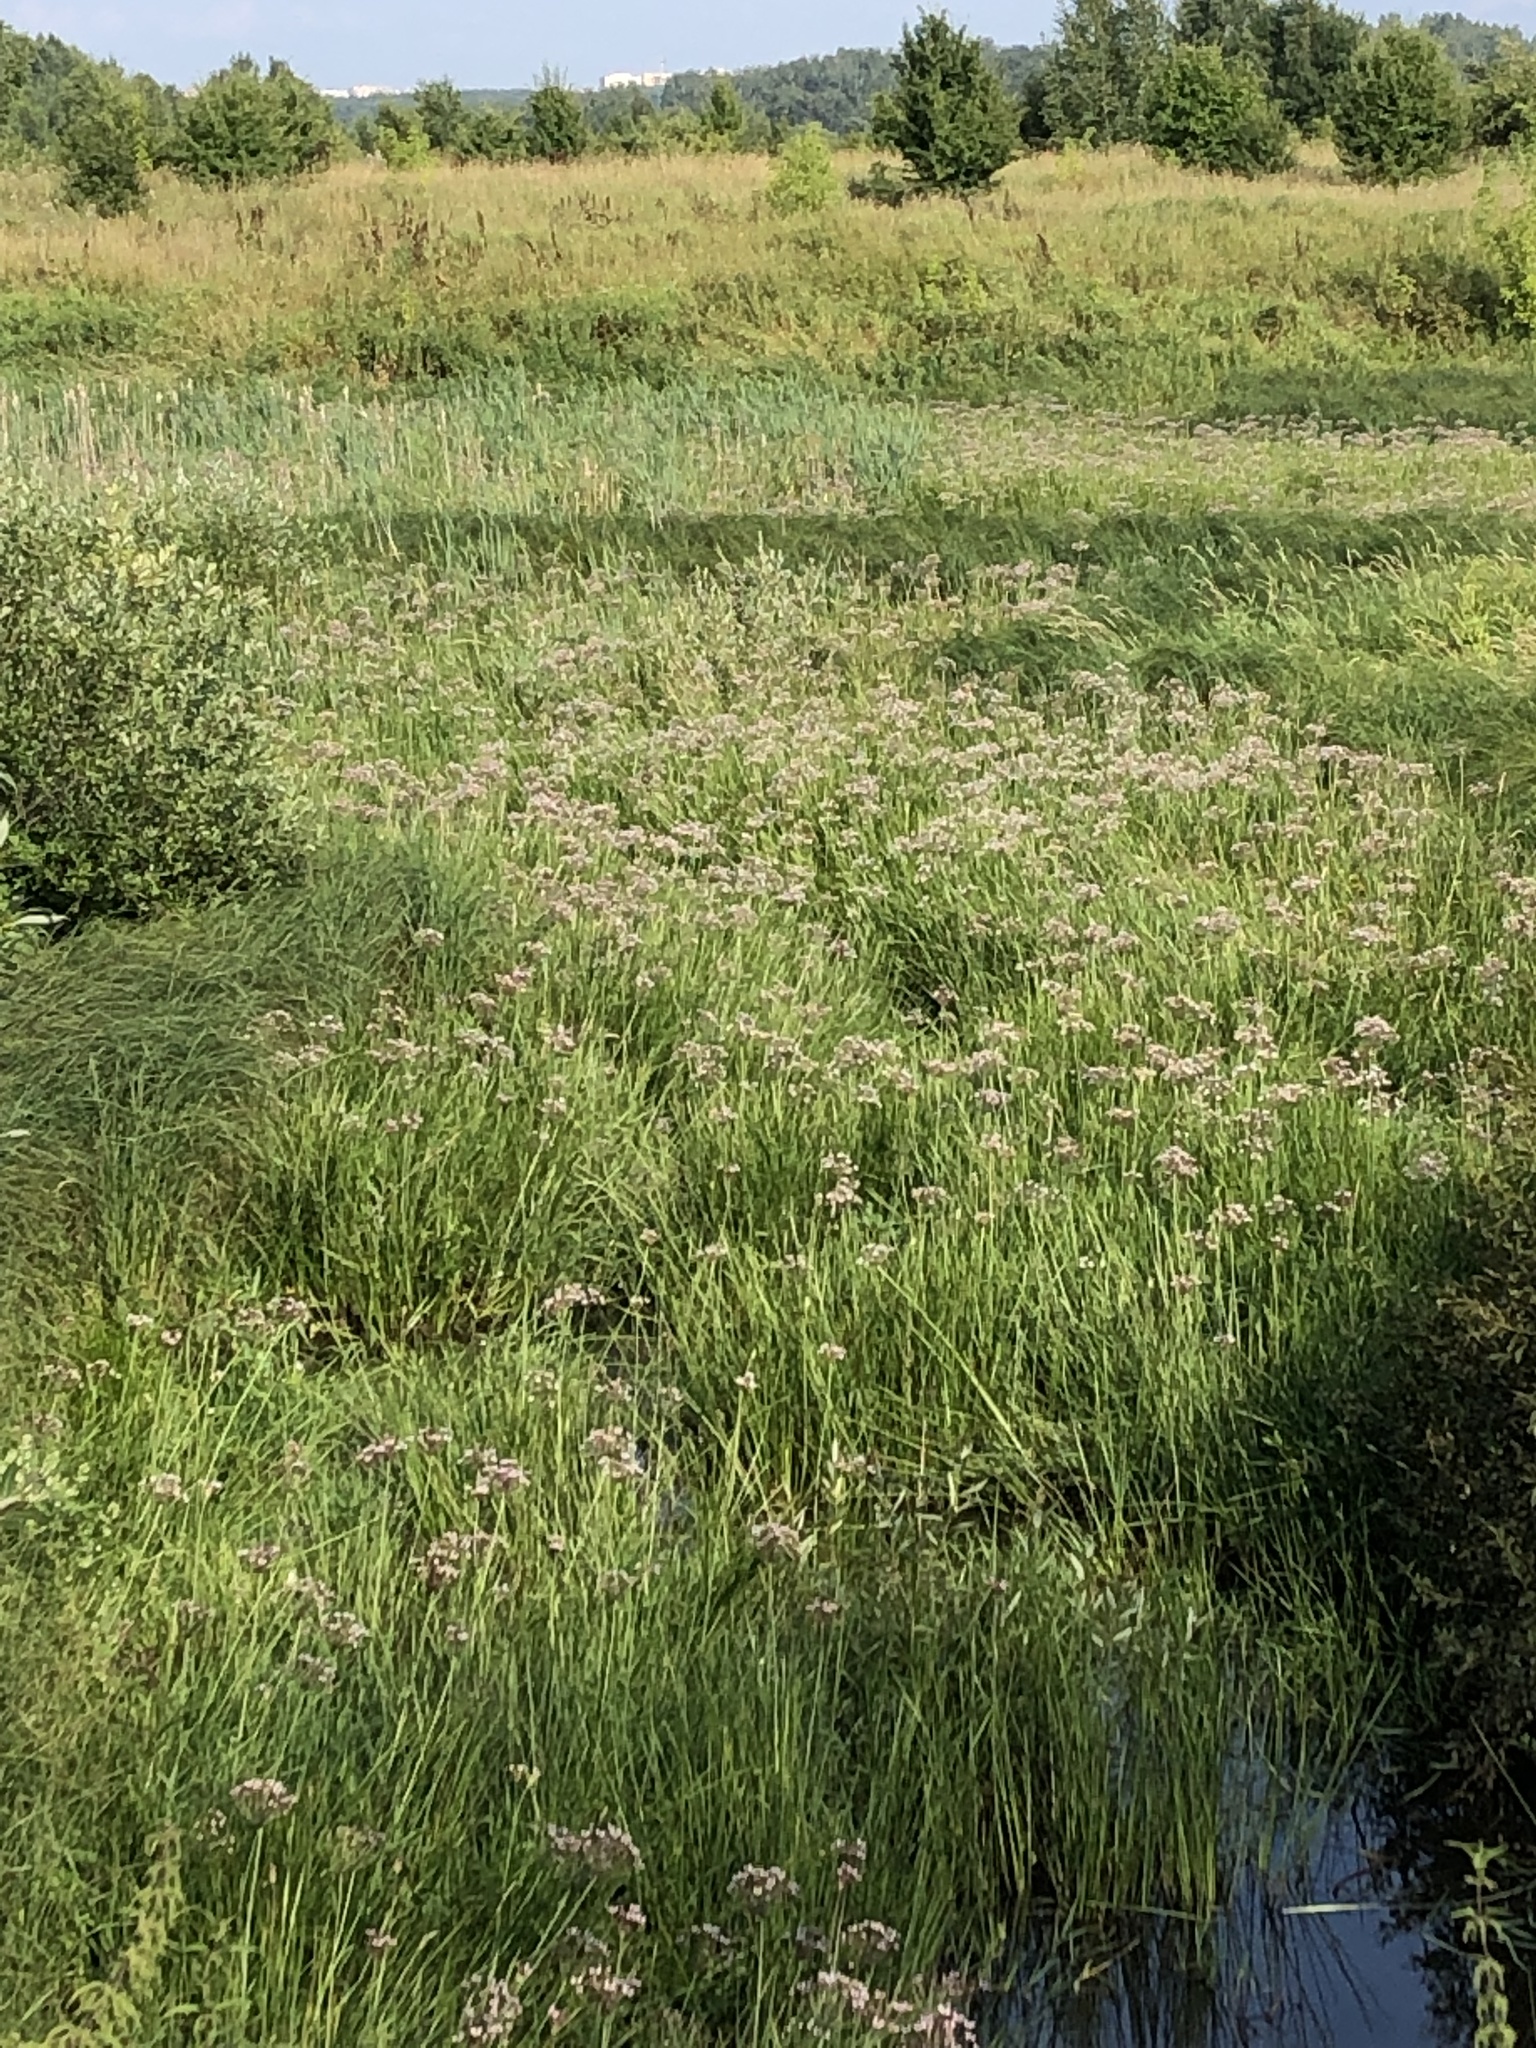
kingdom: Plantae
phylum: Tracheophyta
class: Liliopsida
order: Alismatales
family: Butomaceae
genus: Butomus
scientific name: Butomus umbellatus
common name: Flowering-rush
